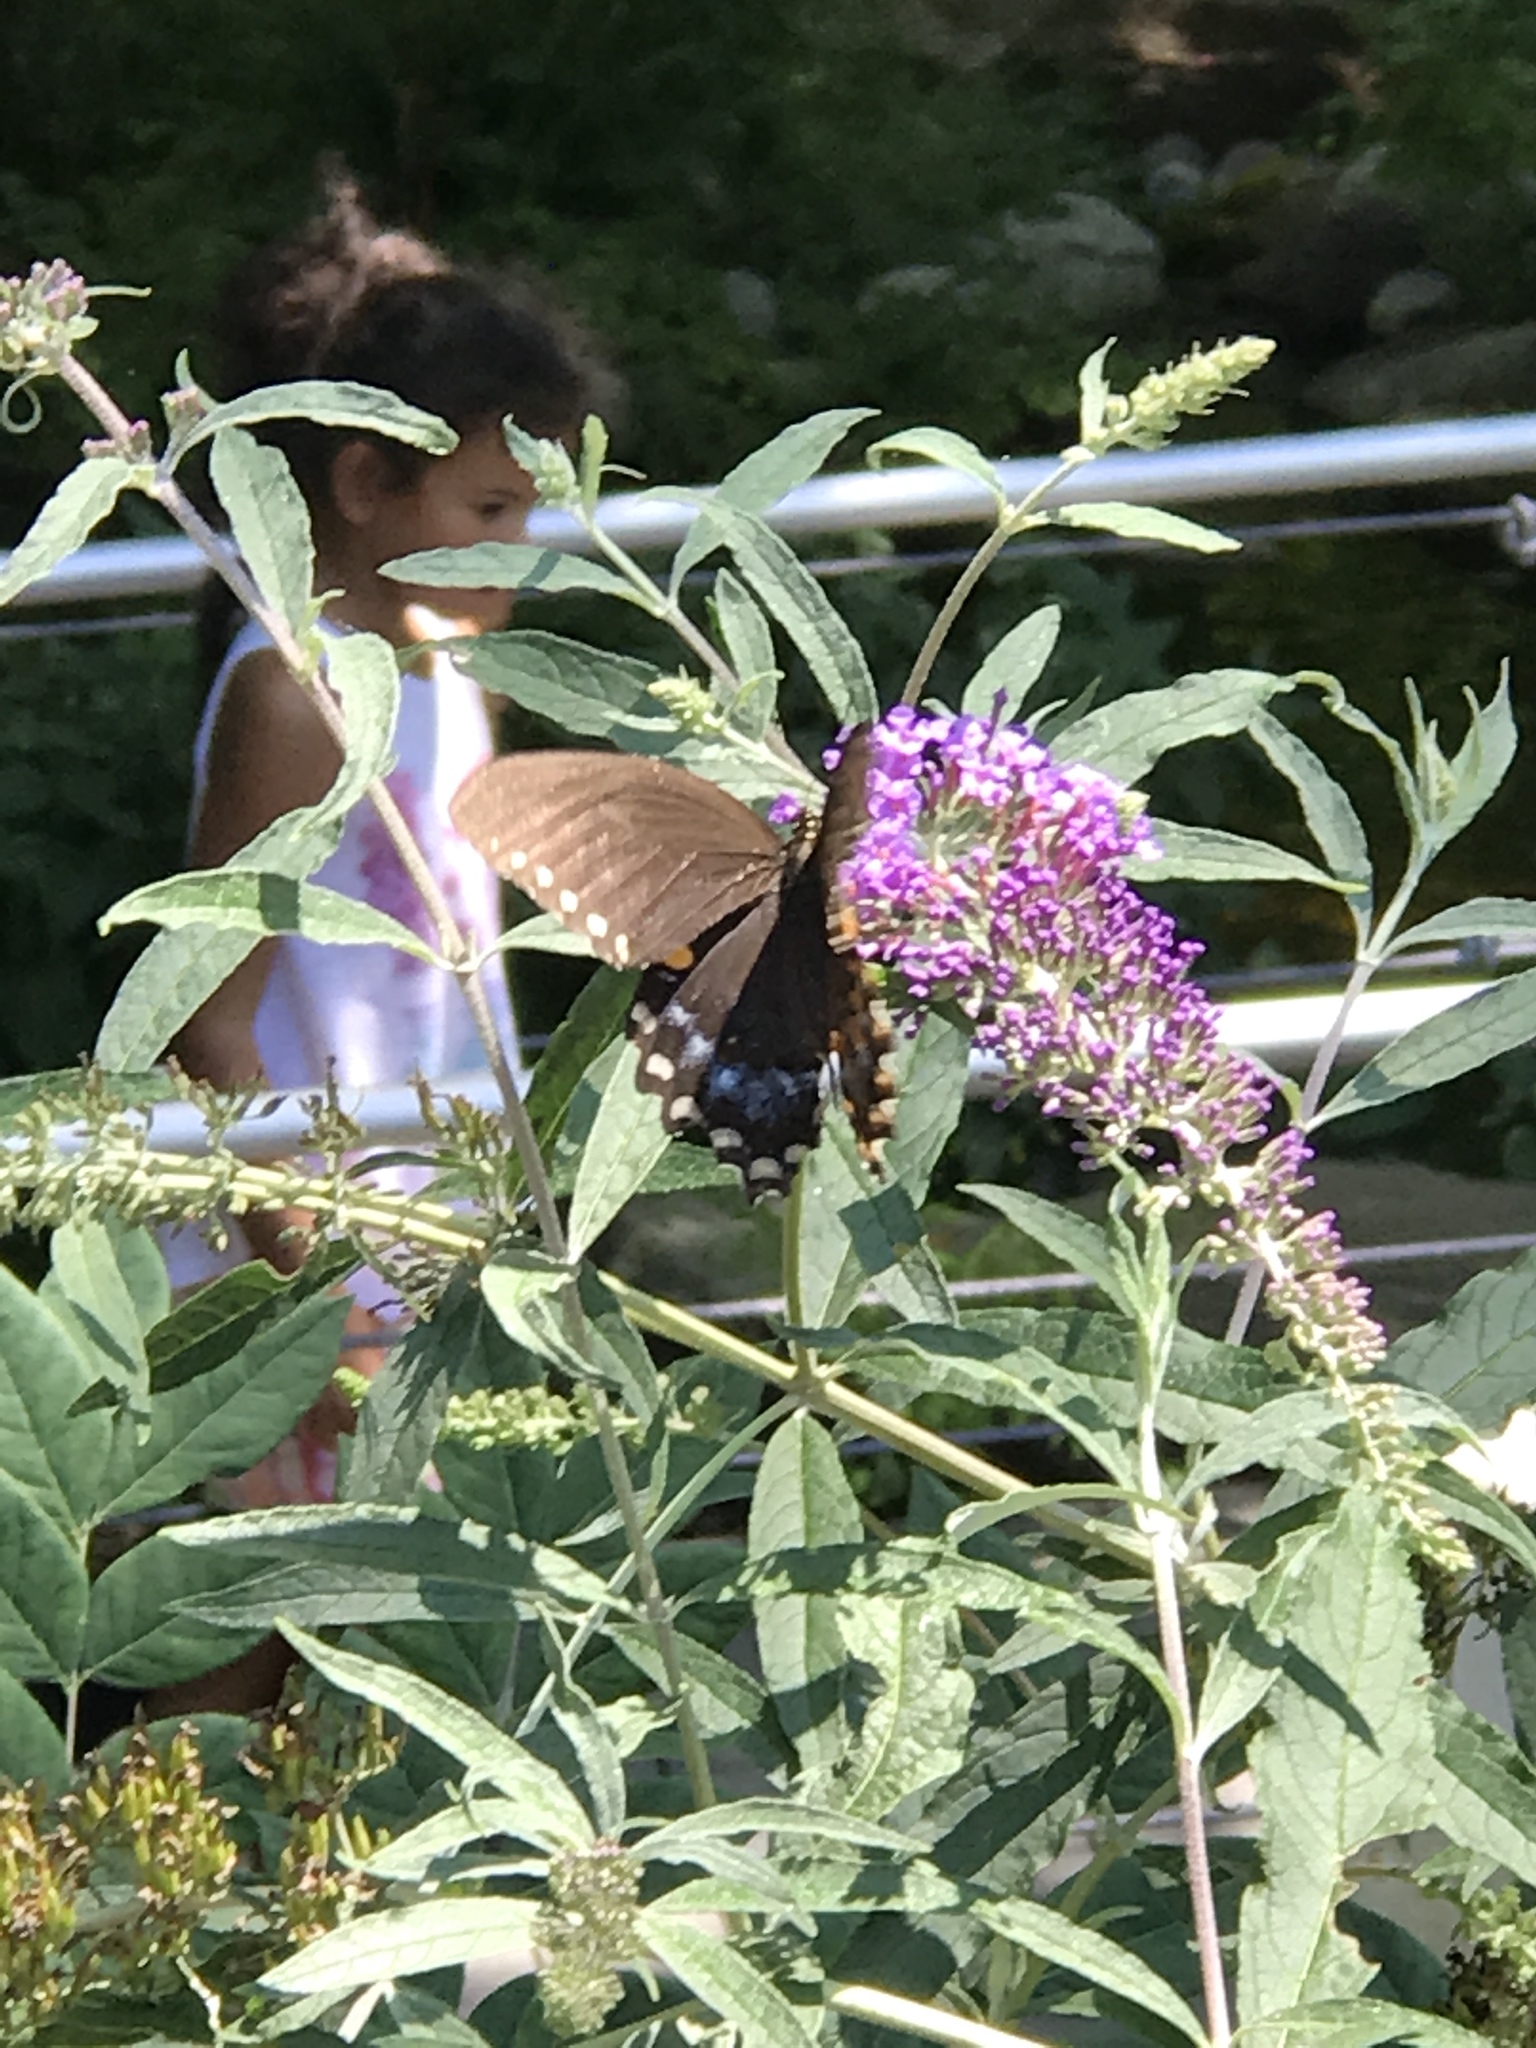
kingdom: Animalia
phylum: Arthropoda
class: Insecta
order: Lepidoptera
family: Papilionidae
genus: Papilio
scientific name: Papilio troilus
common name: Spicebush swallowtail
